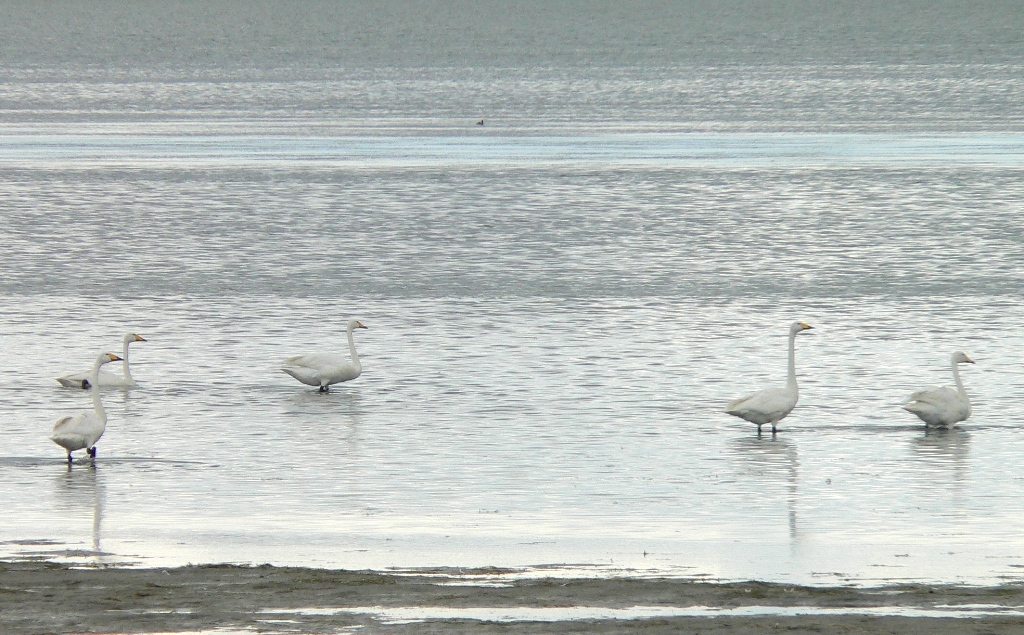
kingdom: Animalia
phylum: Chordata
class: Aves
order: Anseriformes
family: Anatidae
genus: Cygnus
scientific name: Cygnus cygnus
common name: Whooper swan
